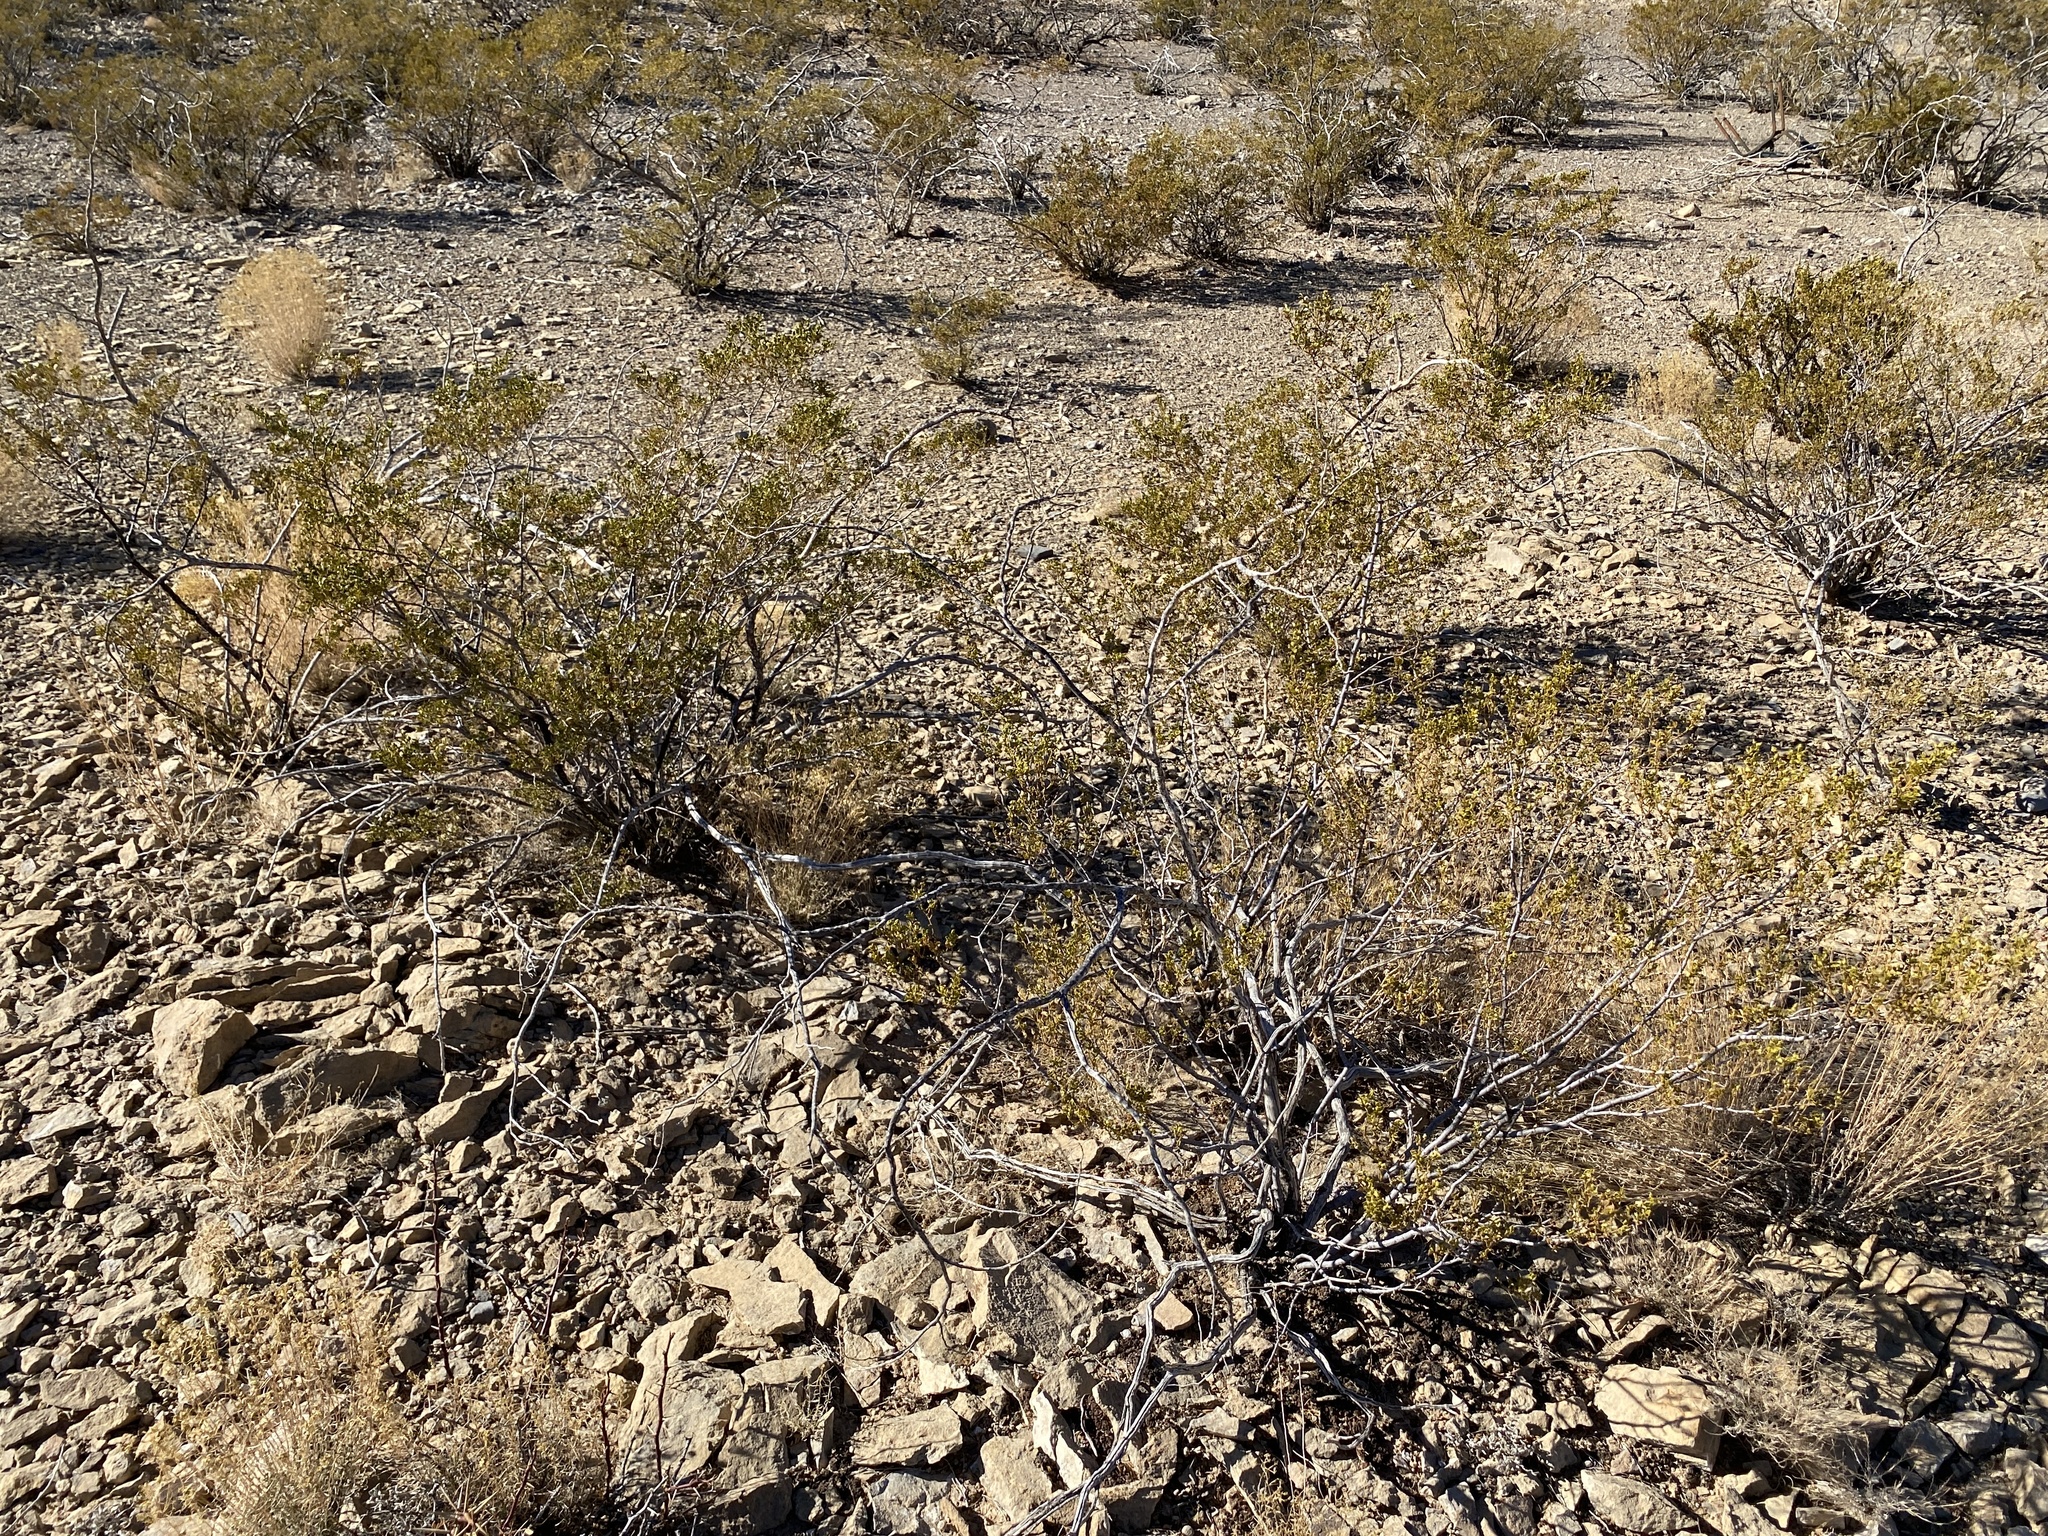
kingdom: Plantae
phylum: Tracheophyta
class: Magnoliopsida
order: Zygophyllales
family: Zygophyllaceae
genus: Larrea
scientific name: Larrea tridentata
